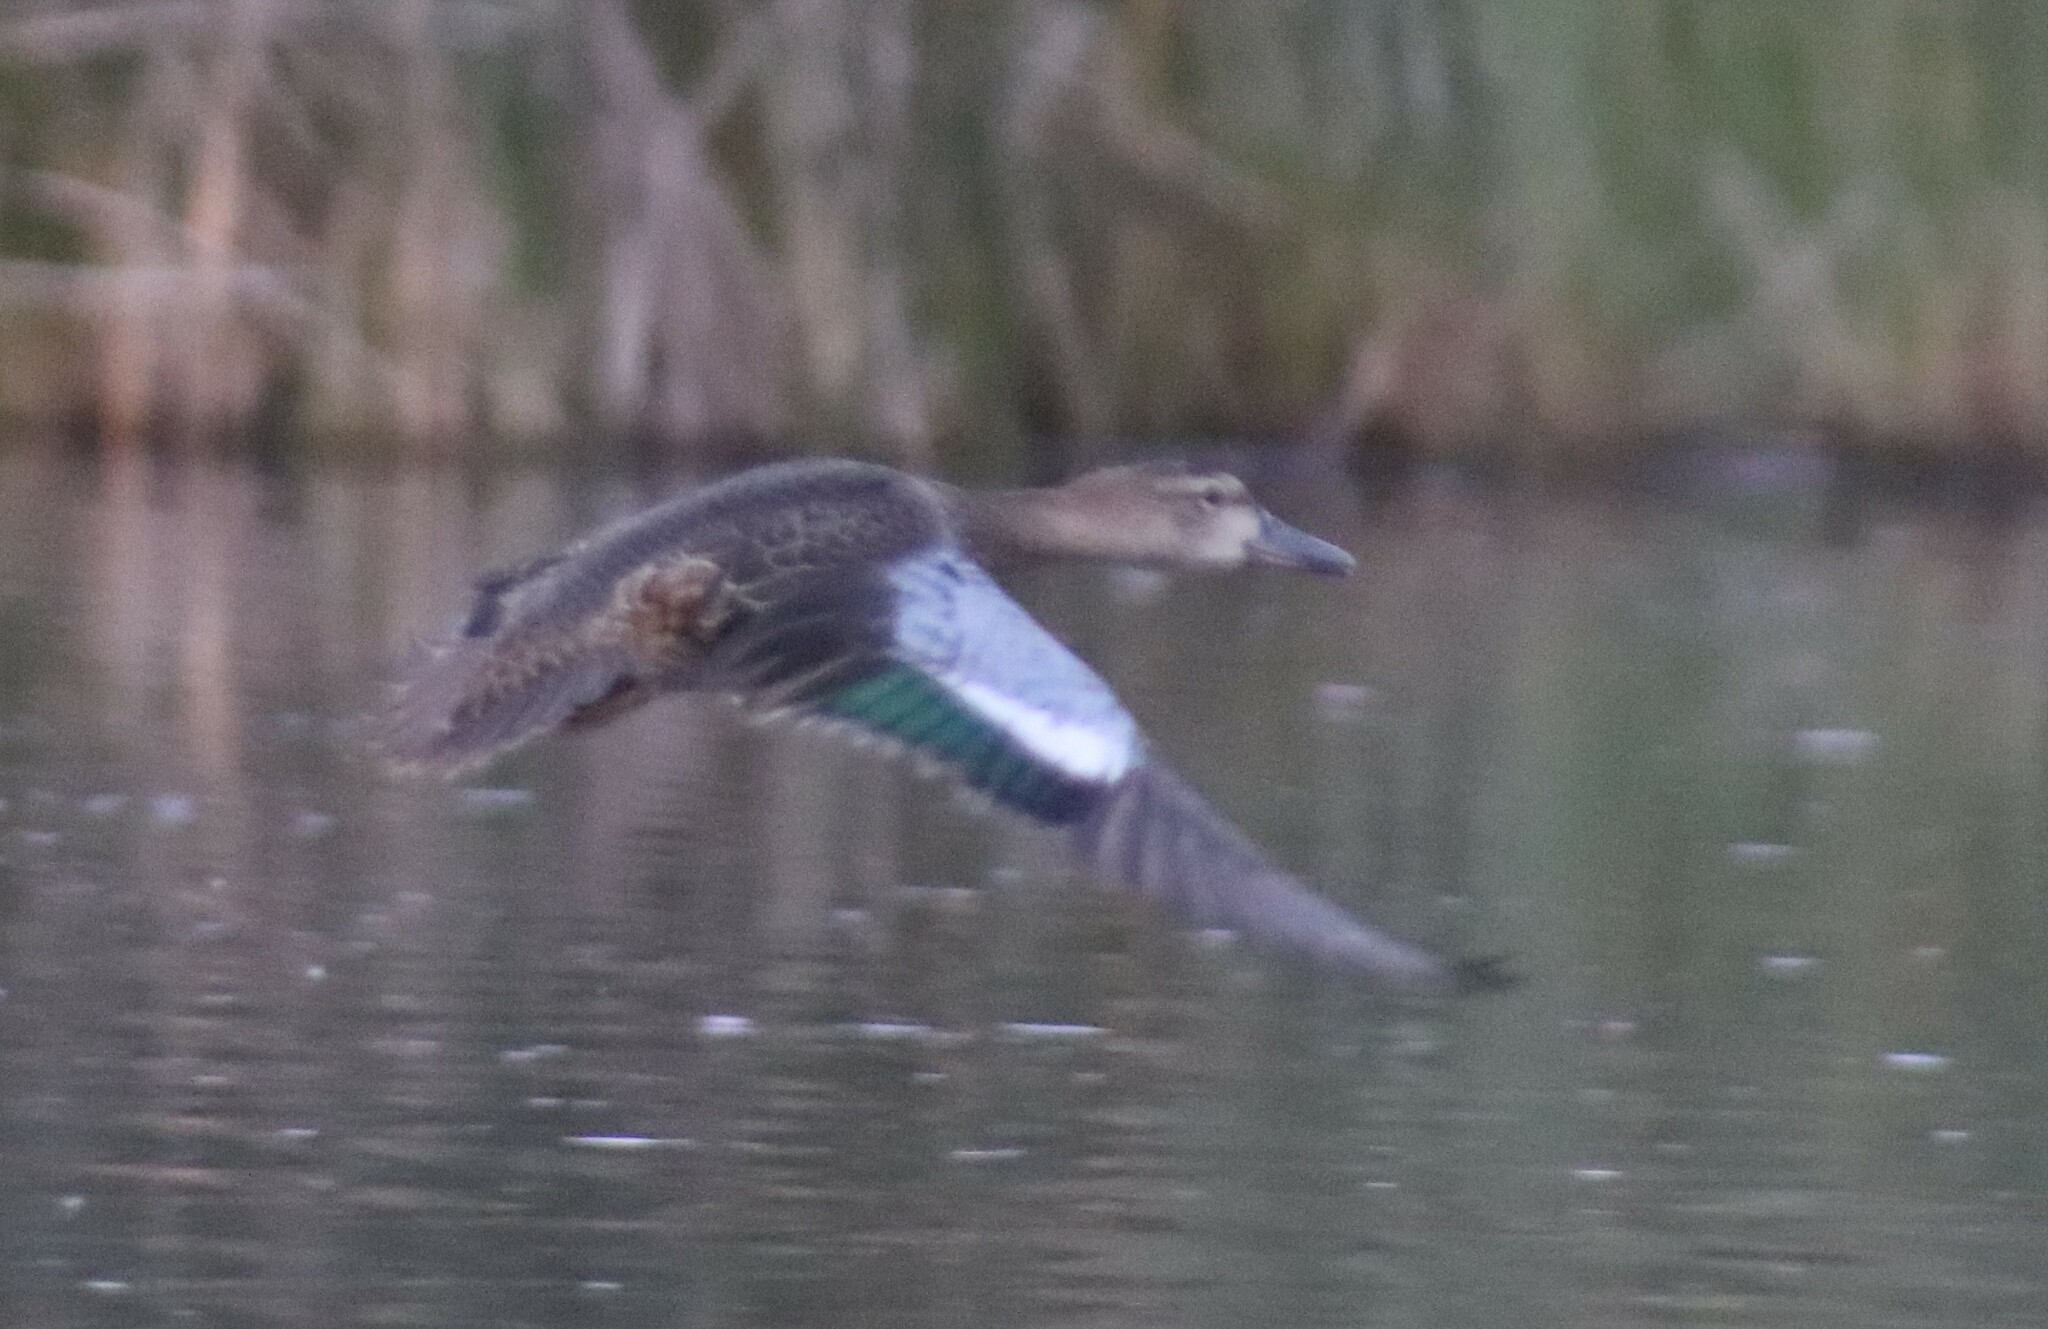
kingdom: Animalia
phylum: Chordata
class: Aves
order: Anseriformes
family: Anatidae
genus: Spatula
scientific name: Spatula discors
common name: Blue-winged teal
